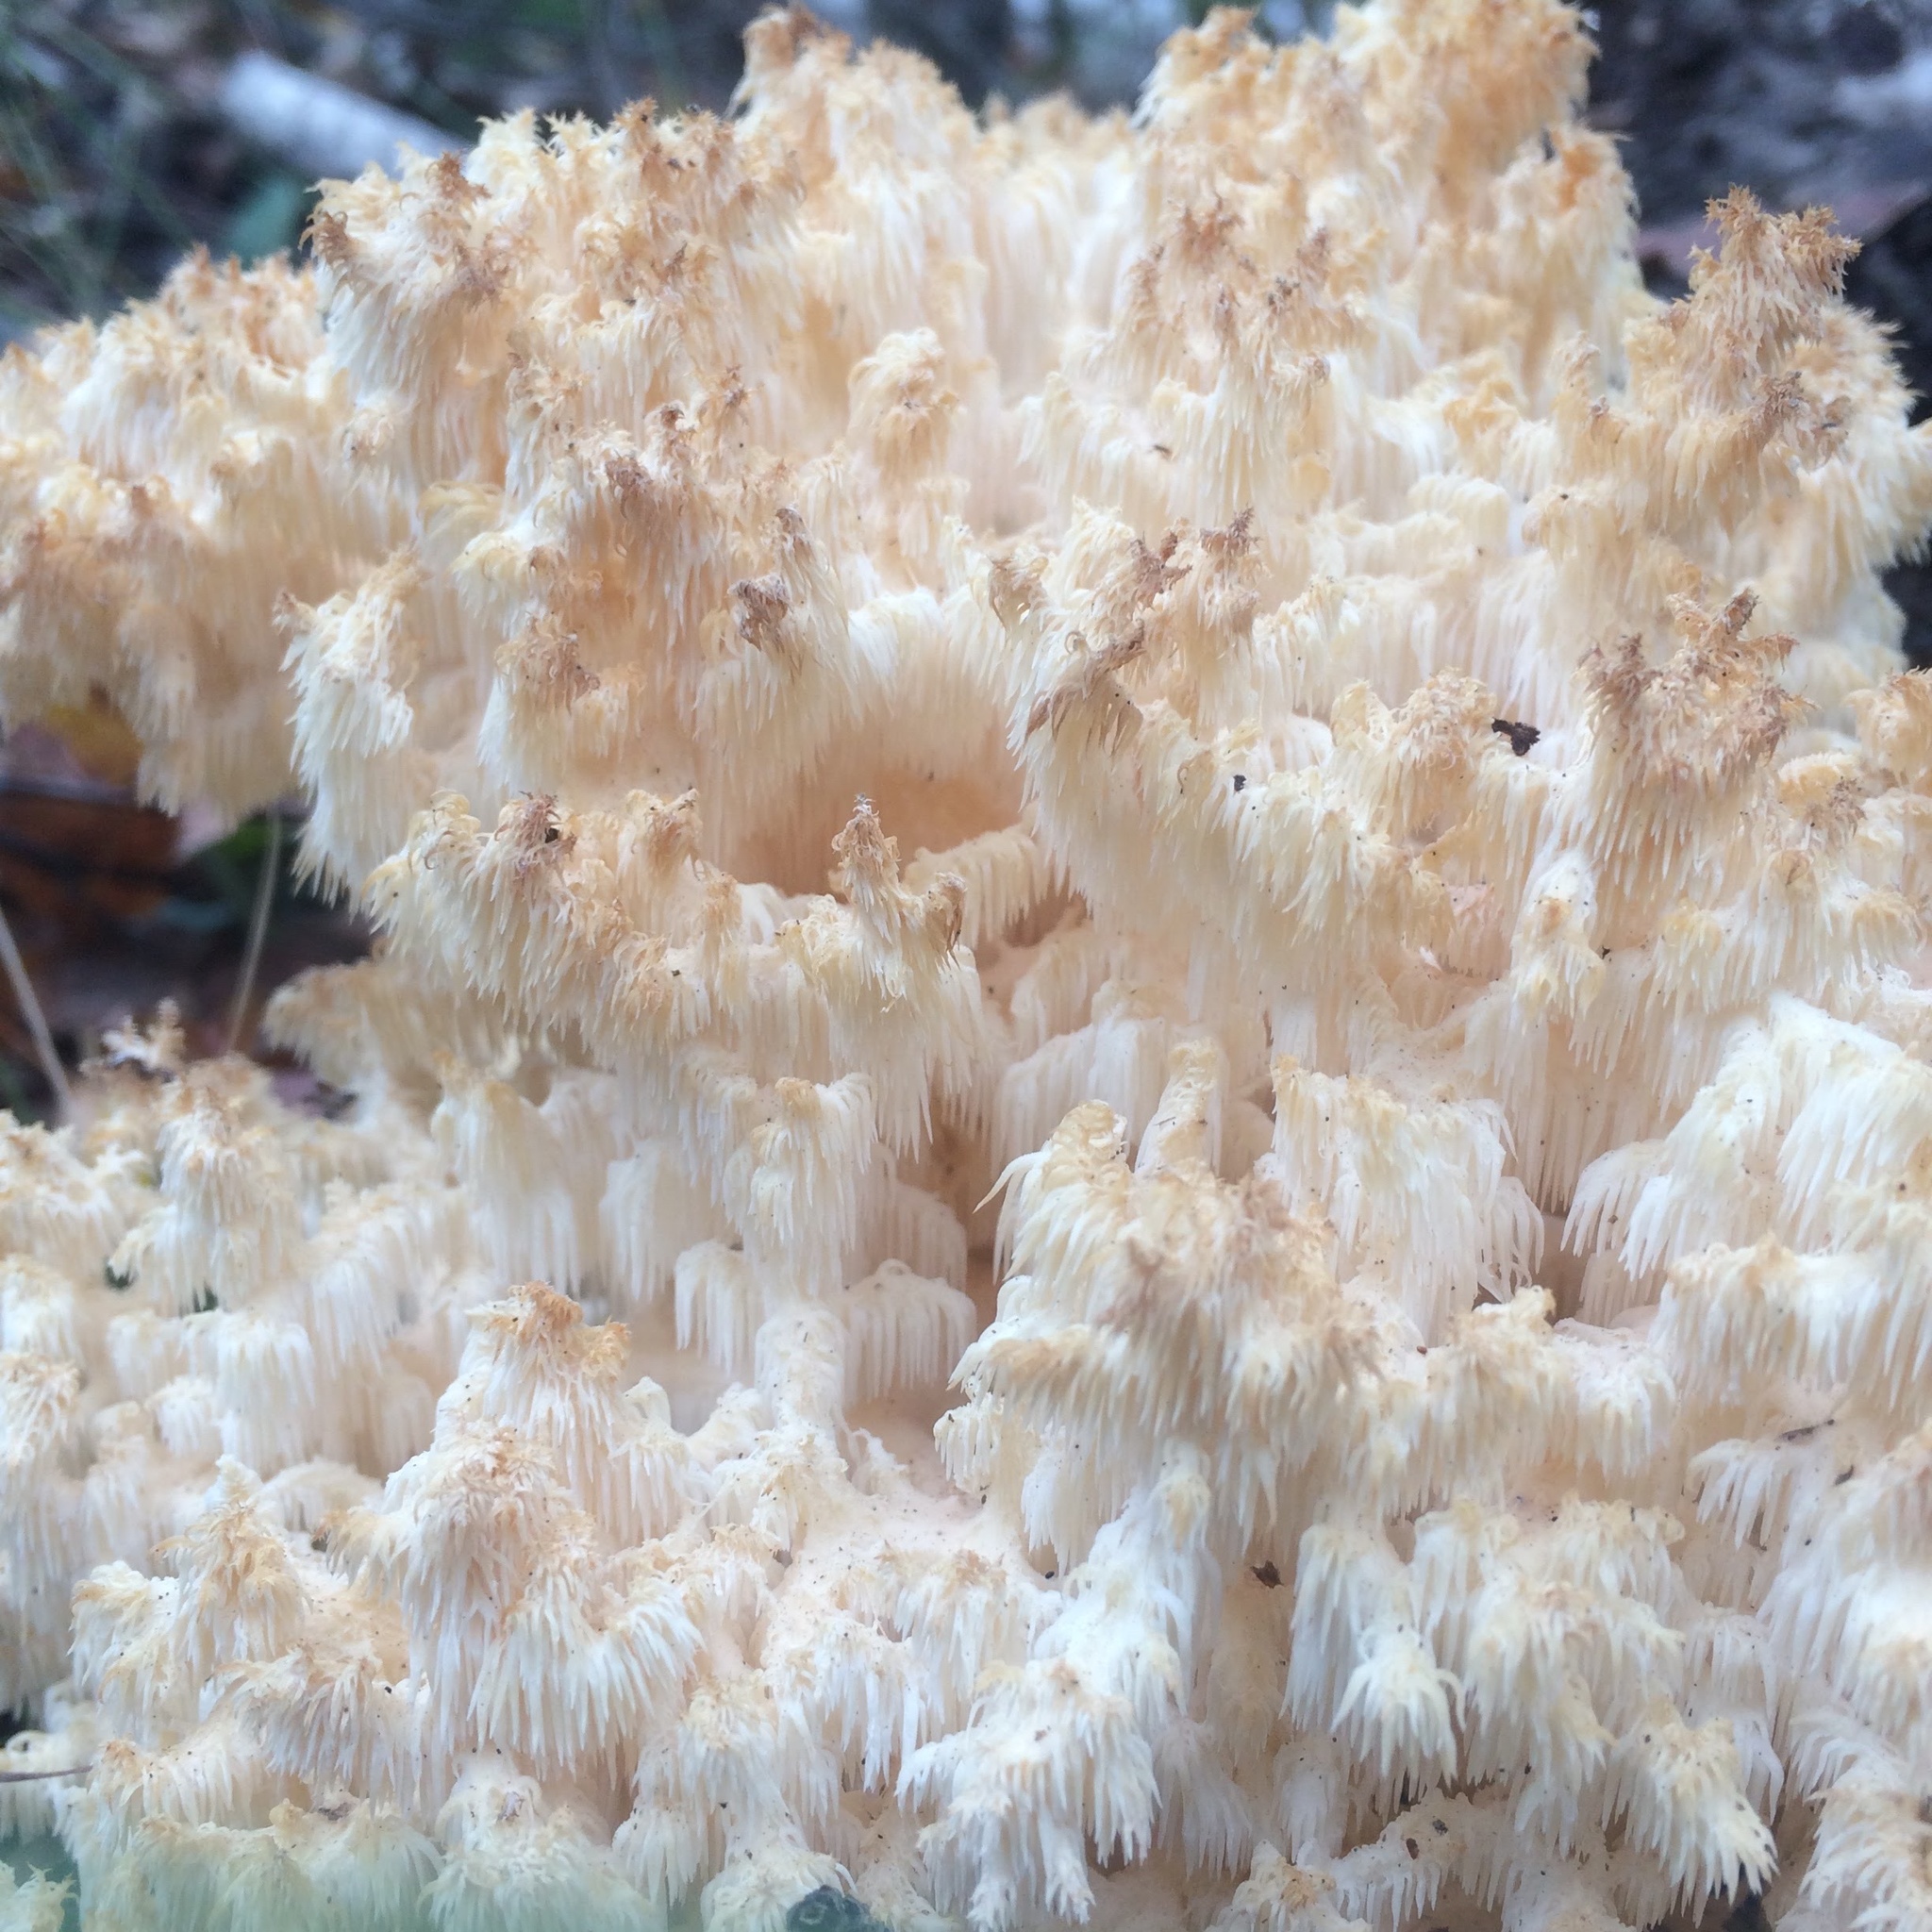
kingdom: Fungi
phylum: Basidiomycota
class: Agaricomycetes
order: Russulales
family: Hericiaceae
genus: Hericium
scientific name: Hericium coralloides
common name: Coral tooth
